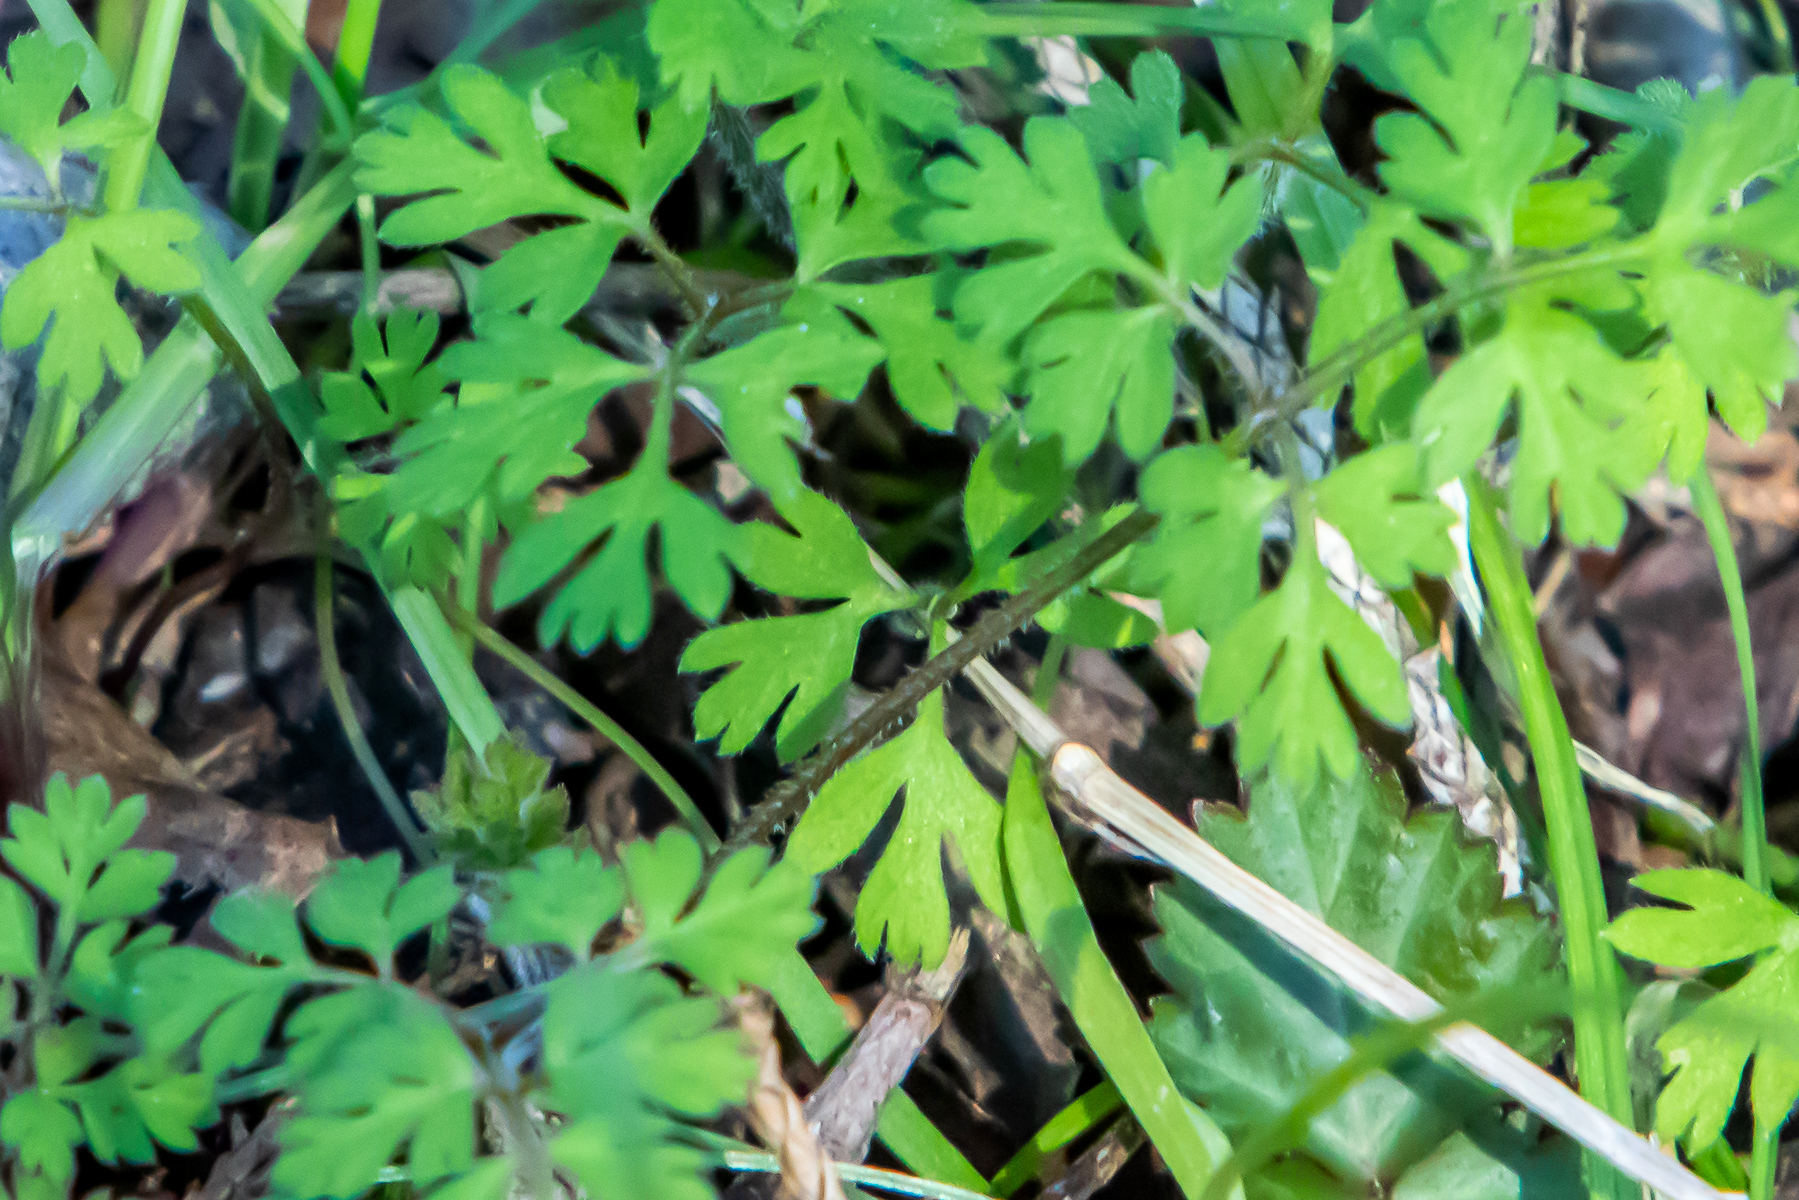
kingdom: Plantae
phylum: Tracheophyta
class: Magnoliopsida
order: Apiales
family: Apiaceae
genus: Chaerophyllum
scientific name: Chaerophyllum procumbens
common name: Spreading chervil
